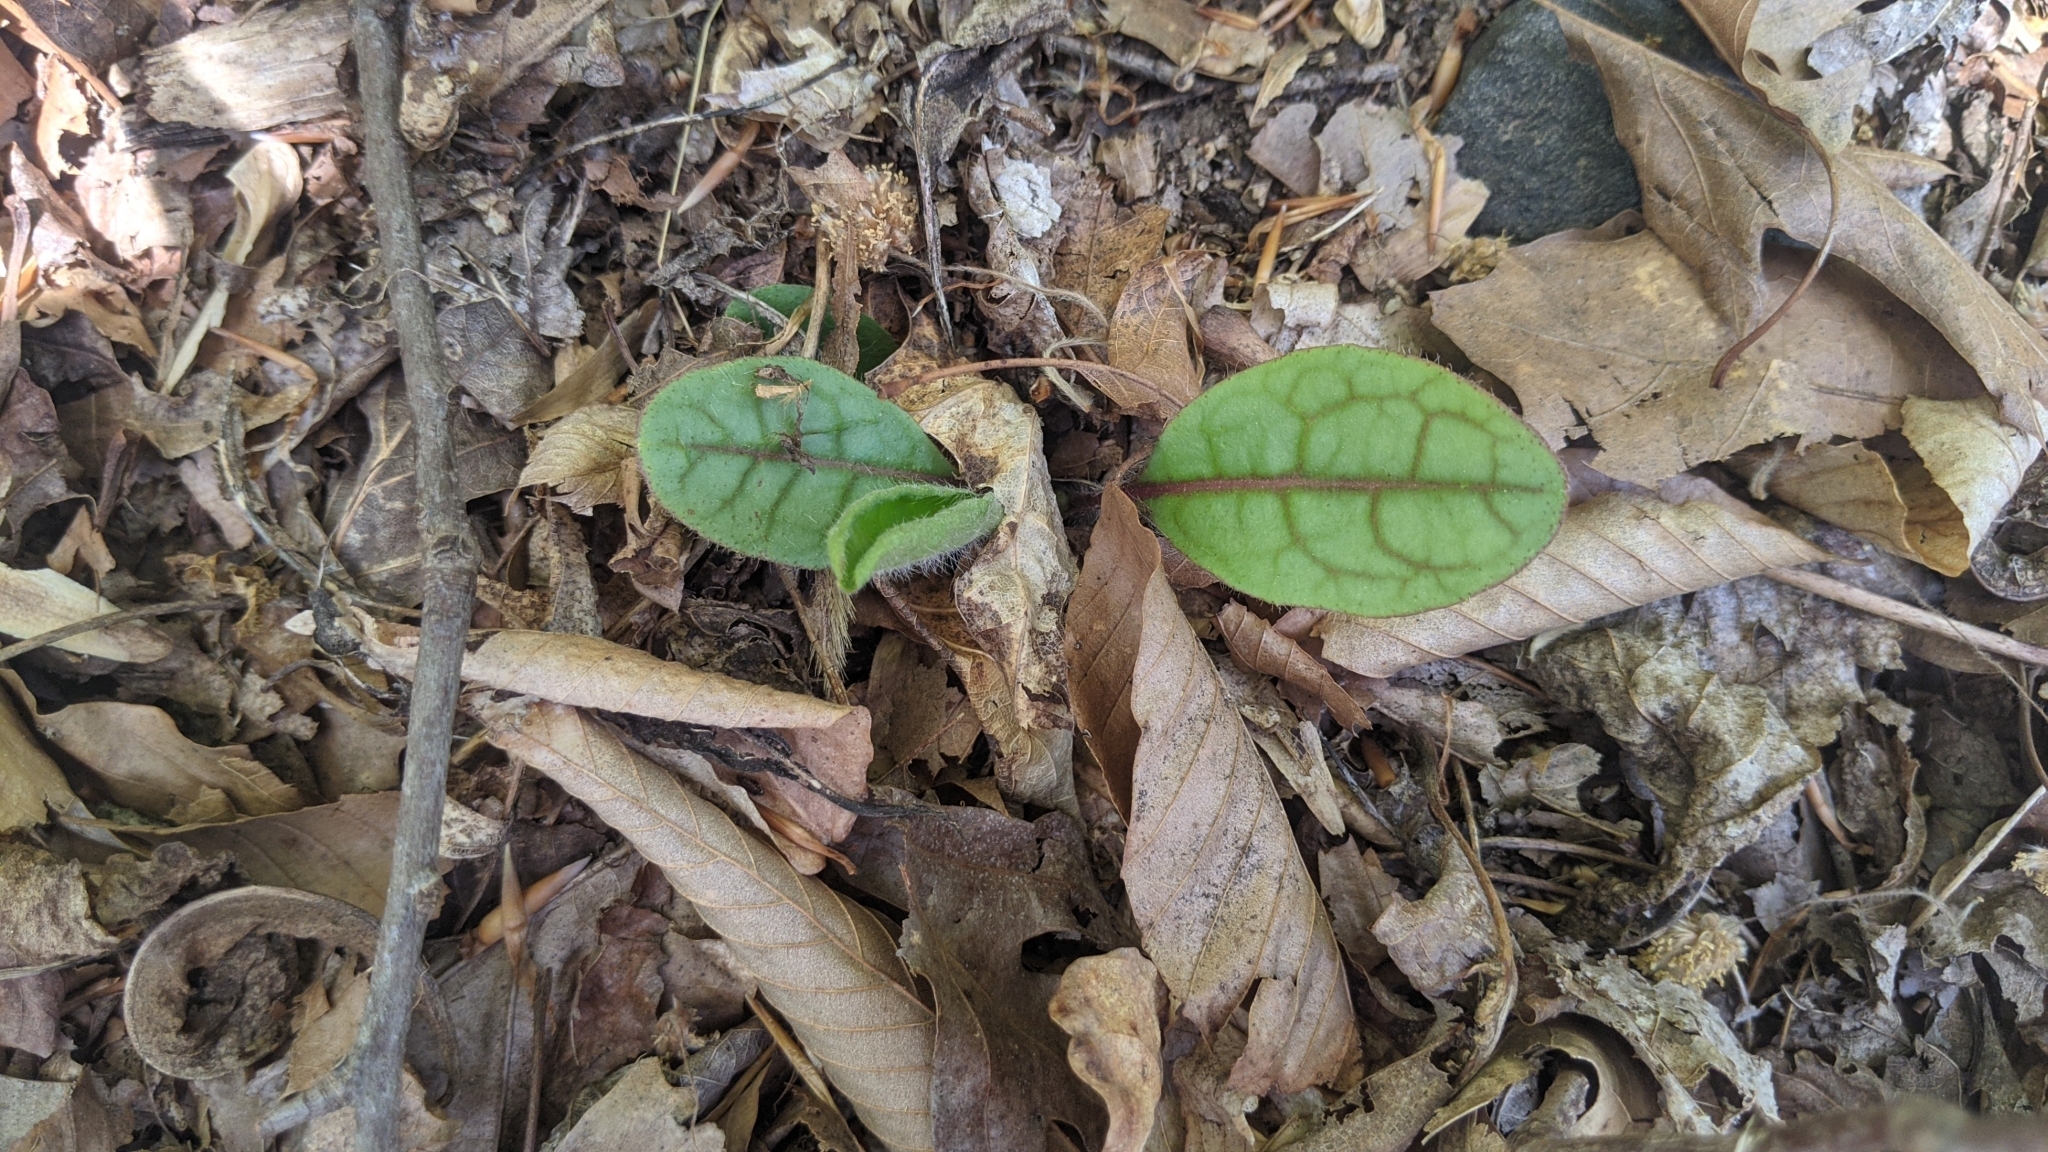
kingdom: Plantae
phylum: Tracheophyta
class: Magnoliopsida
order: Asterales
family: Asteraceae
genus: Hieracium
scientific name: Hieracium venosum
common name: Rattlesnake hawkweed
